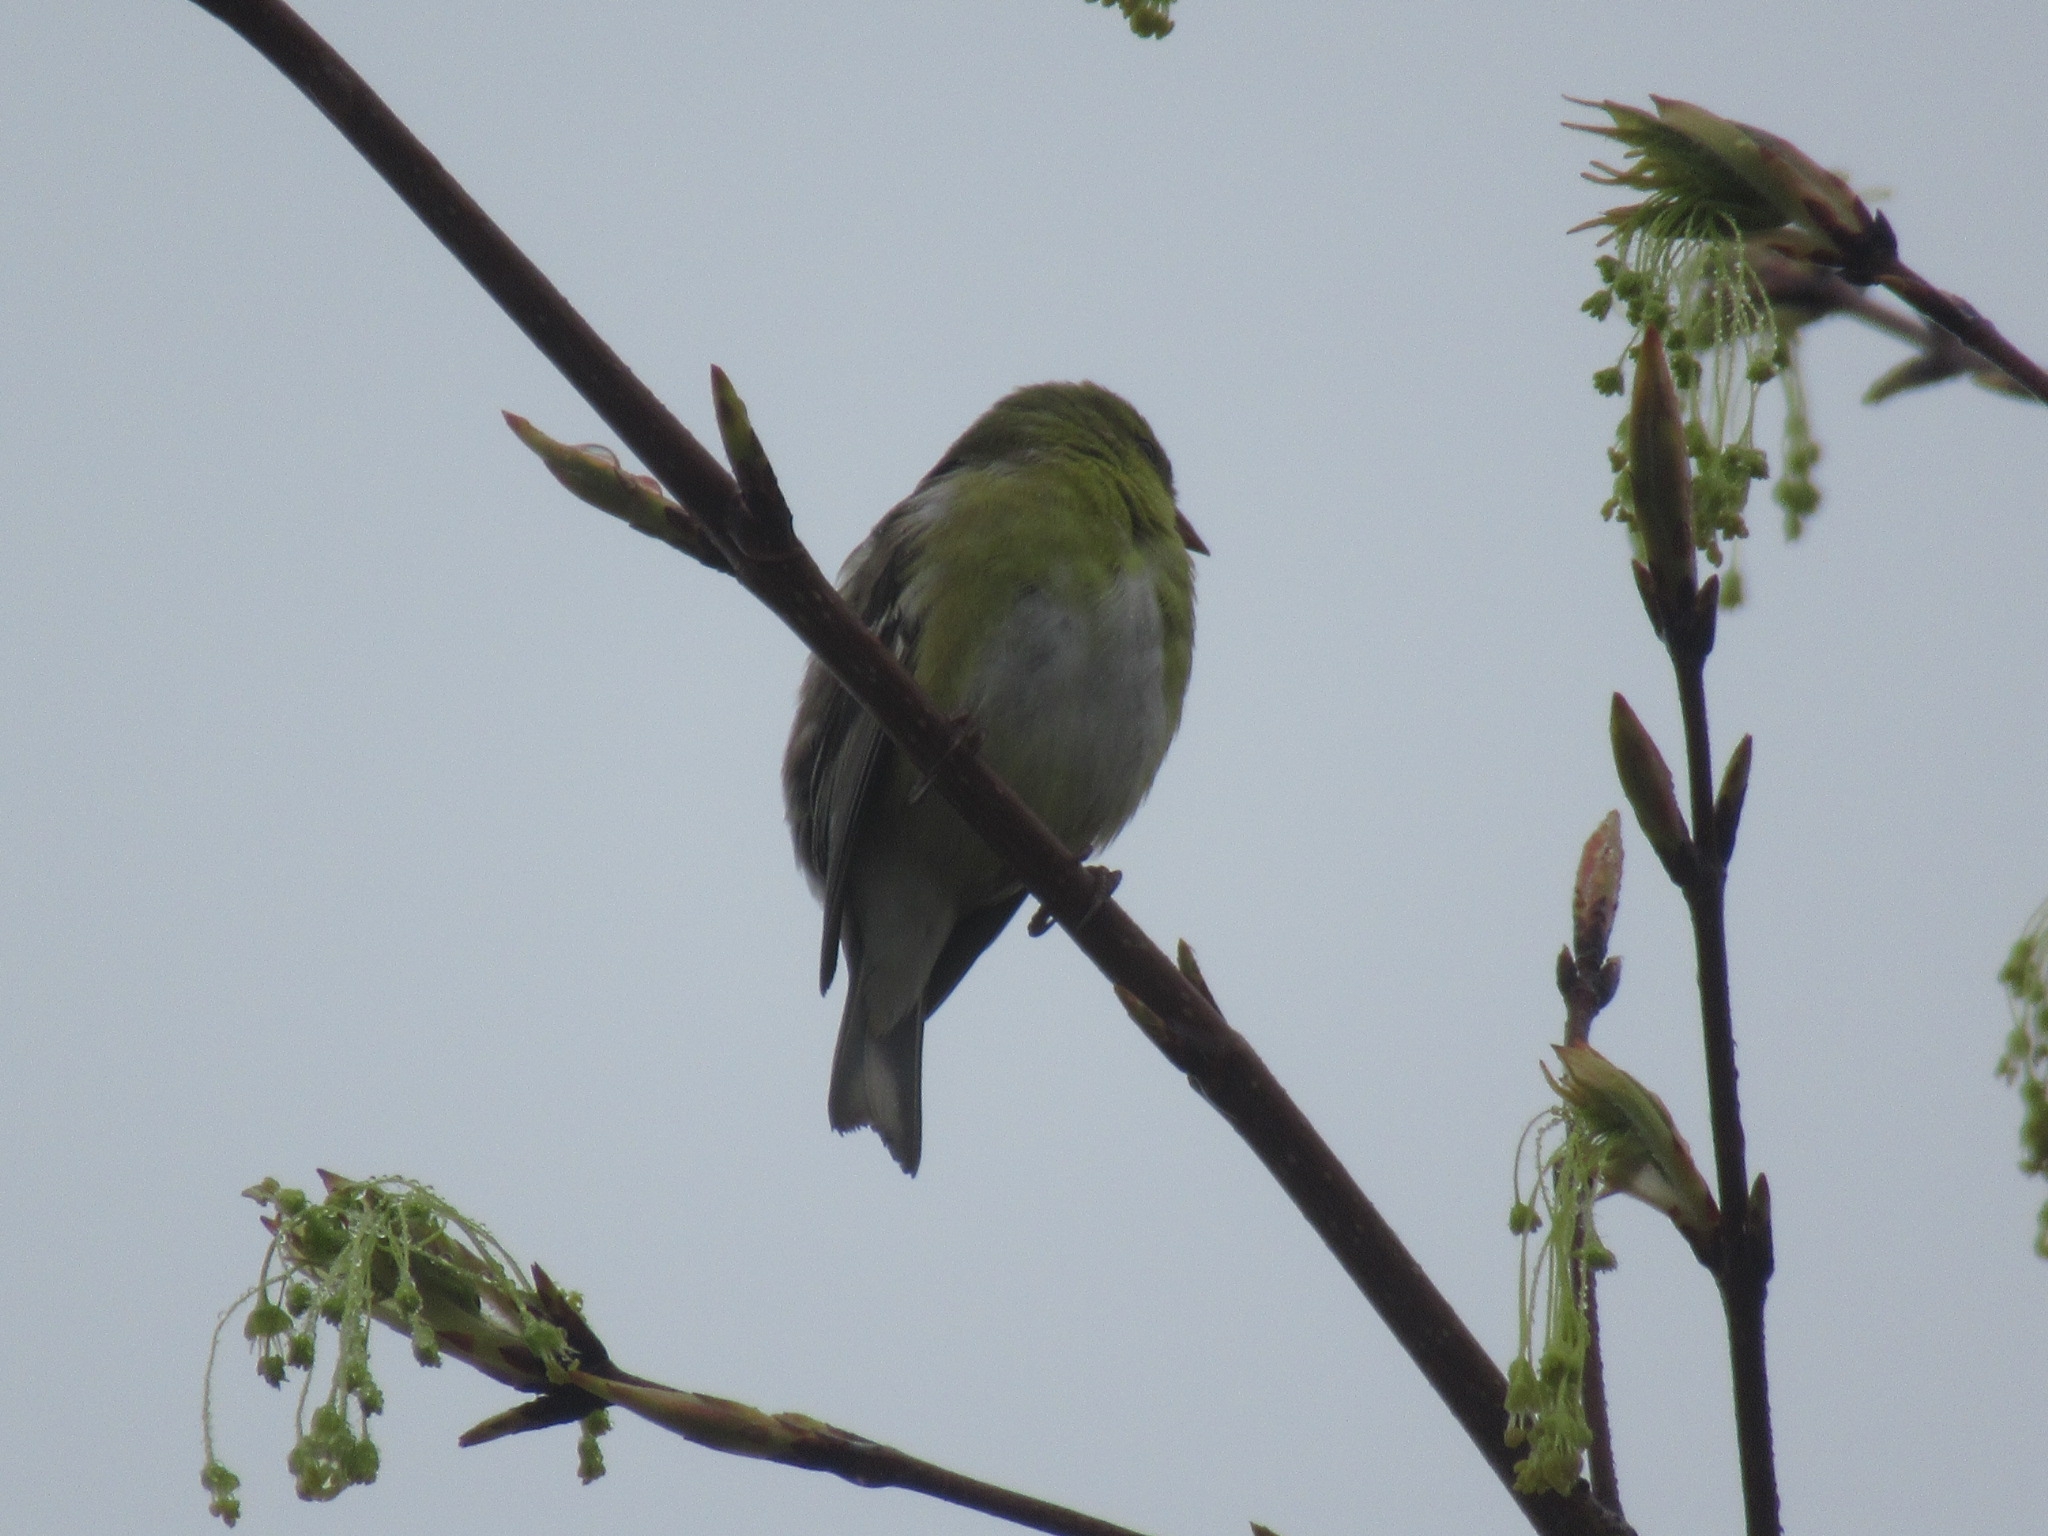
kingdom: Animalia
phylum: Chordata
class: Aves
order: Passeriformes
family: Fringillidae
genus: Spinus
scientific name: Spinus tristis
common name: American goldfinch
